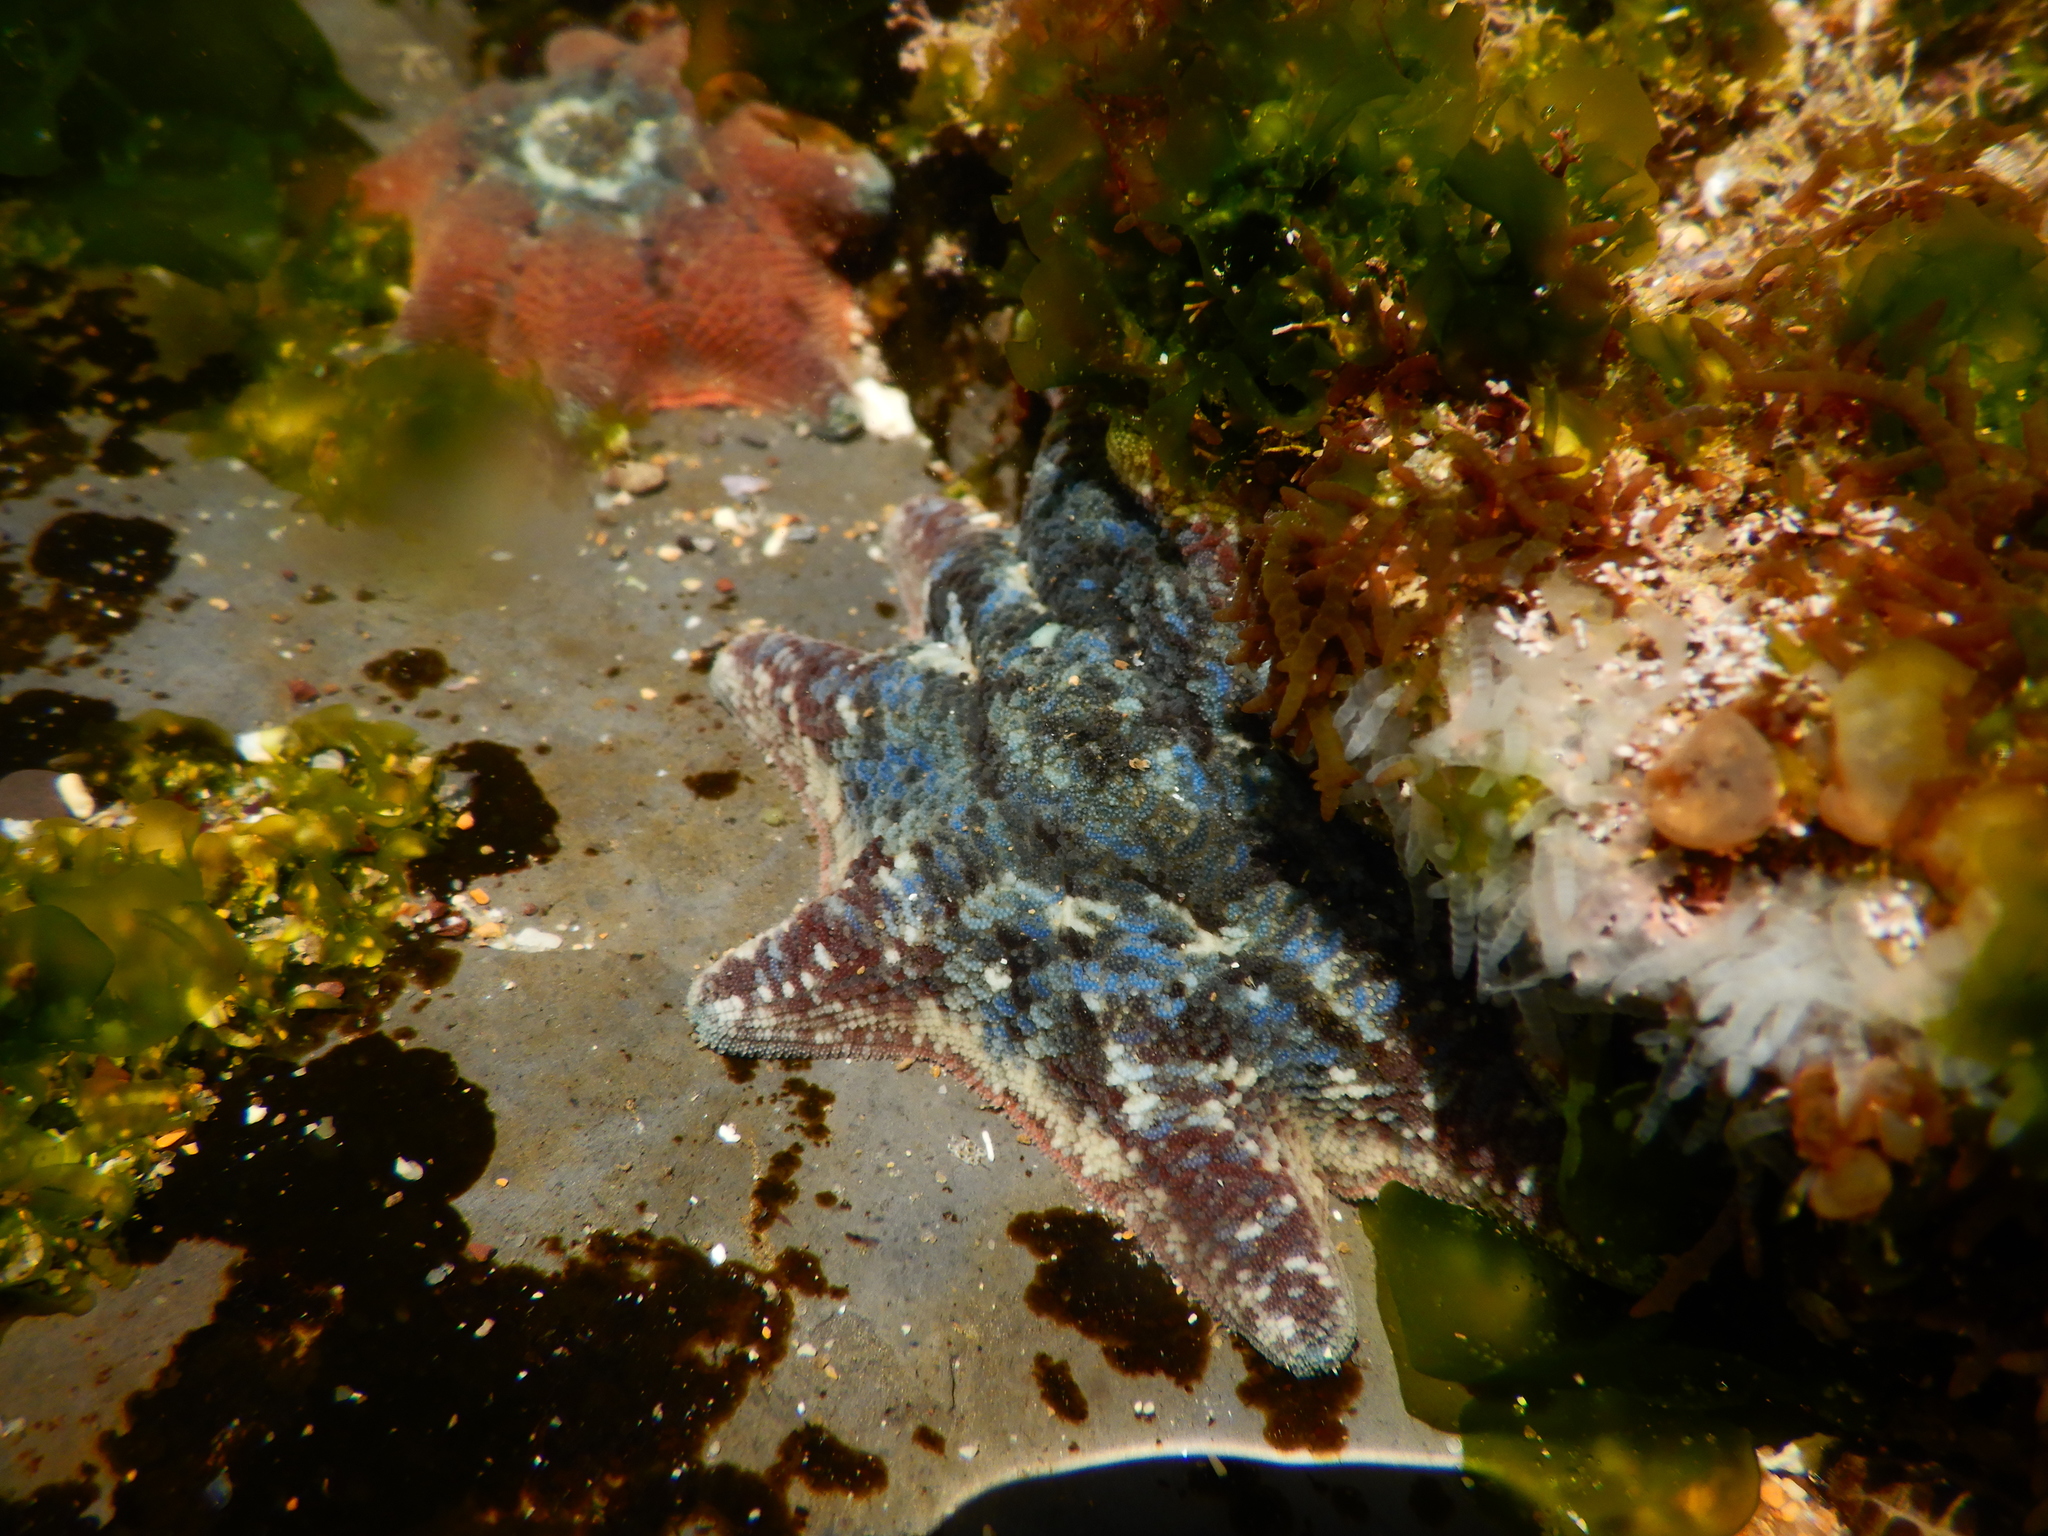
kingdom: Animalia
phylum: Echinodermata
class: Asteroidea
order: Valvatida
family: Asterinidae
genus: Meridiastra
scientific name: Meridiastra calcar
